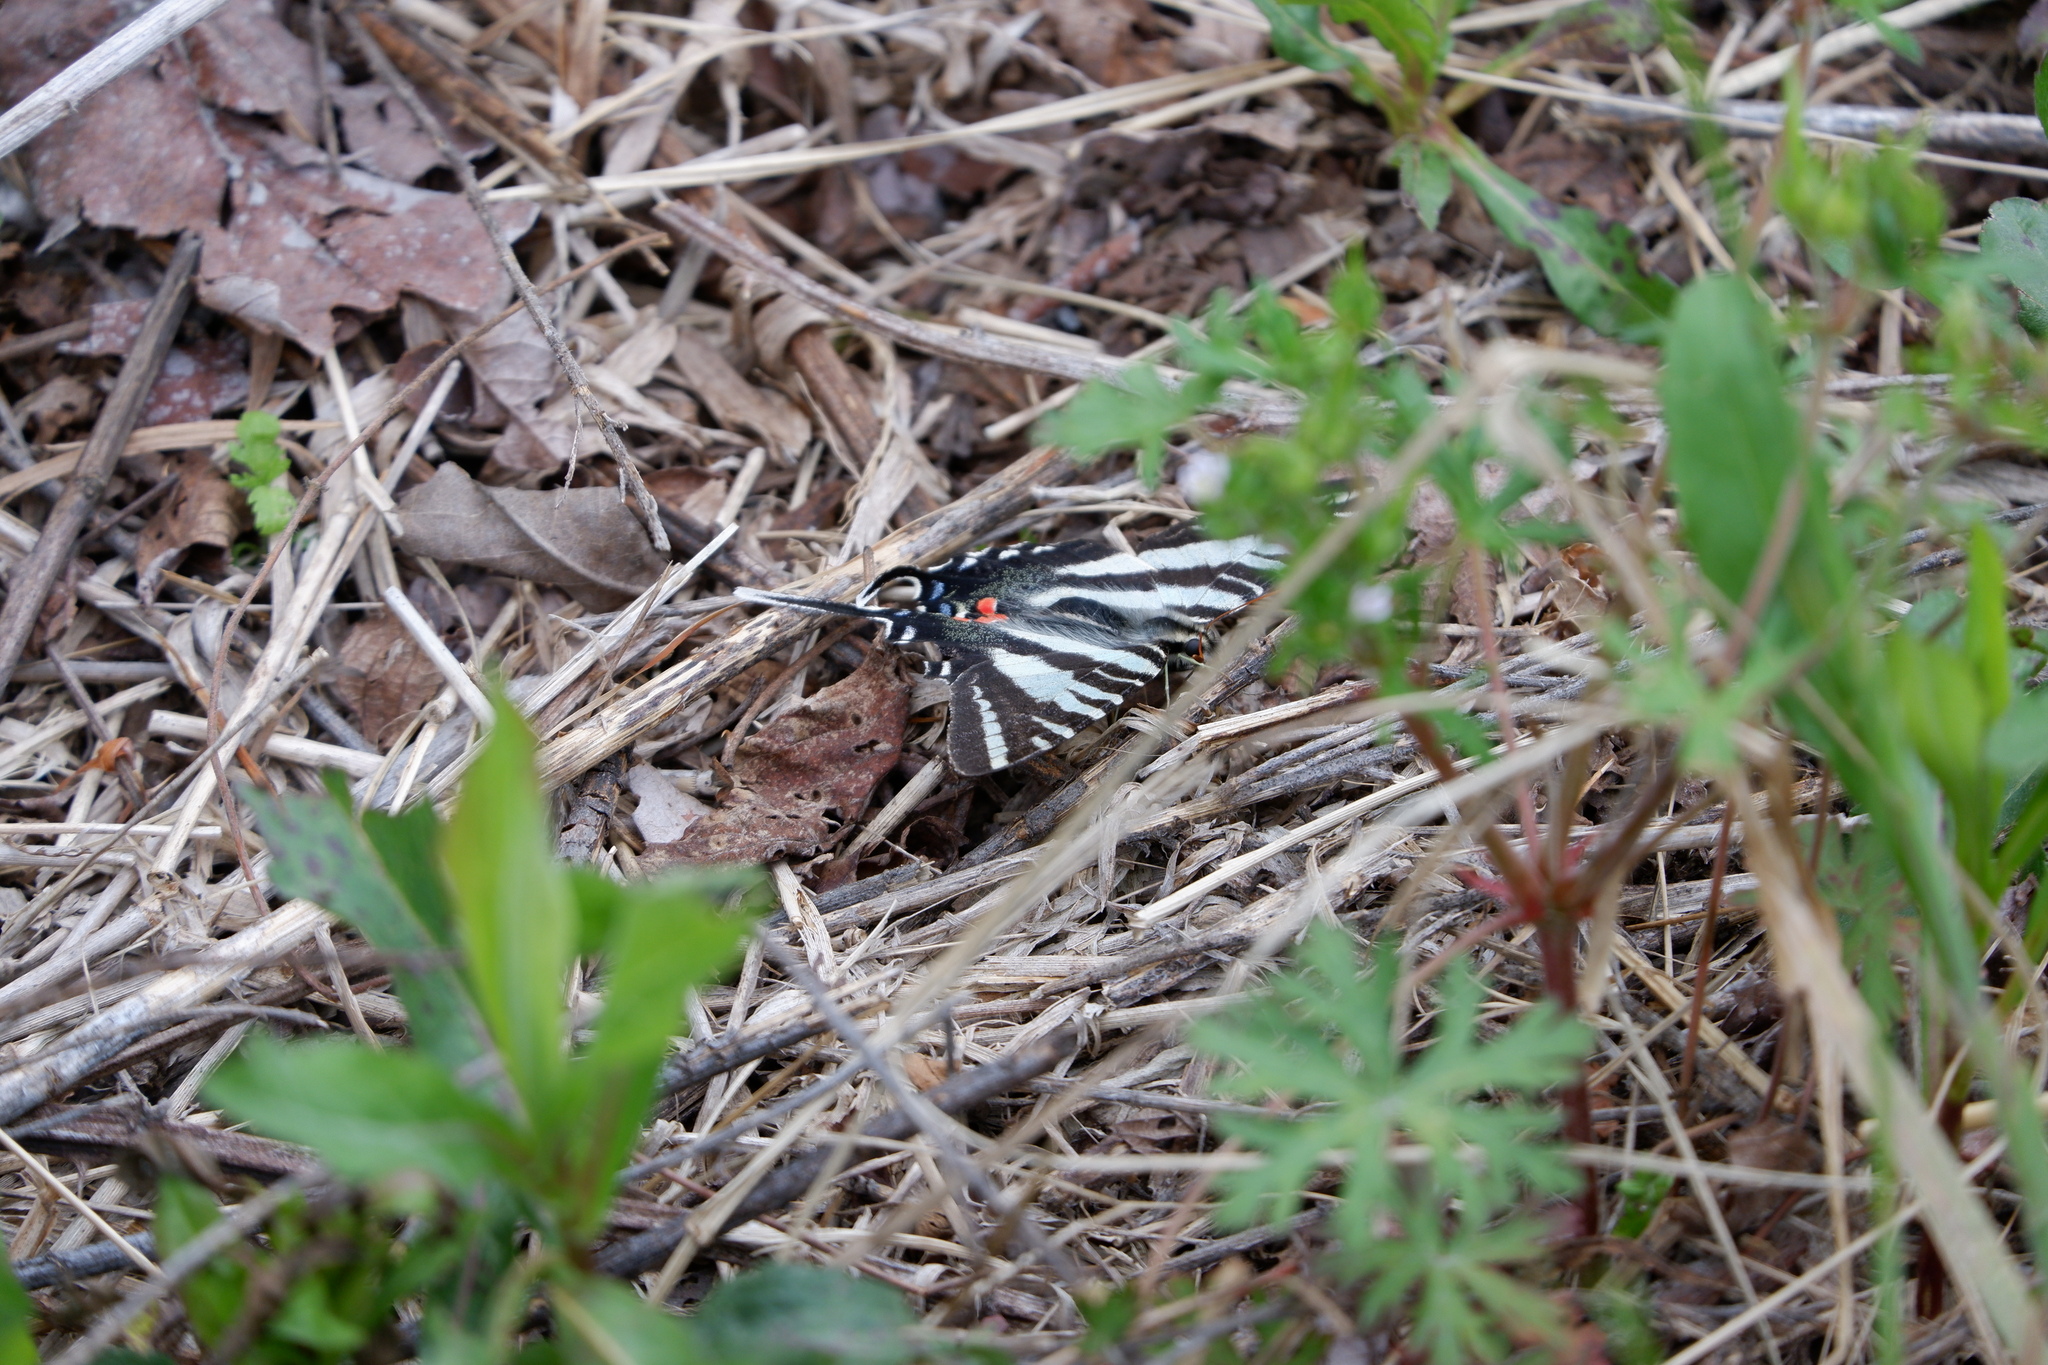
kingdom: Animalia
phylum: Arthropoda
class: Insecta
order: Lepidoptera
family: Papilionidae
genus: Protographium
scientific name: Protographium marcellus
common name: Zebra swallowtail
